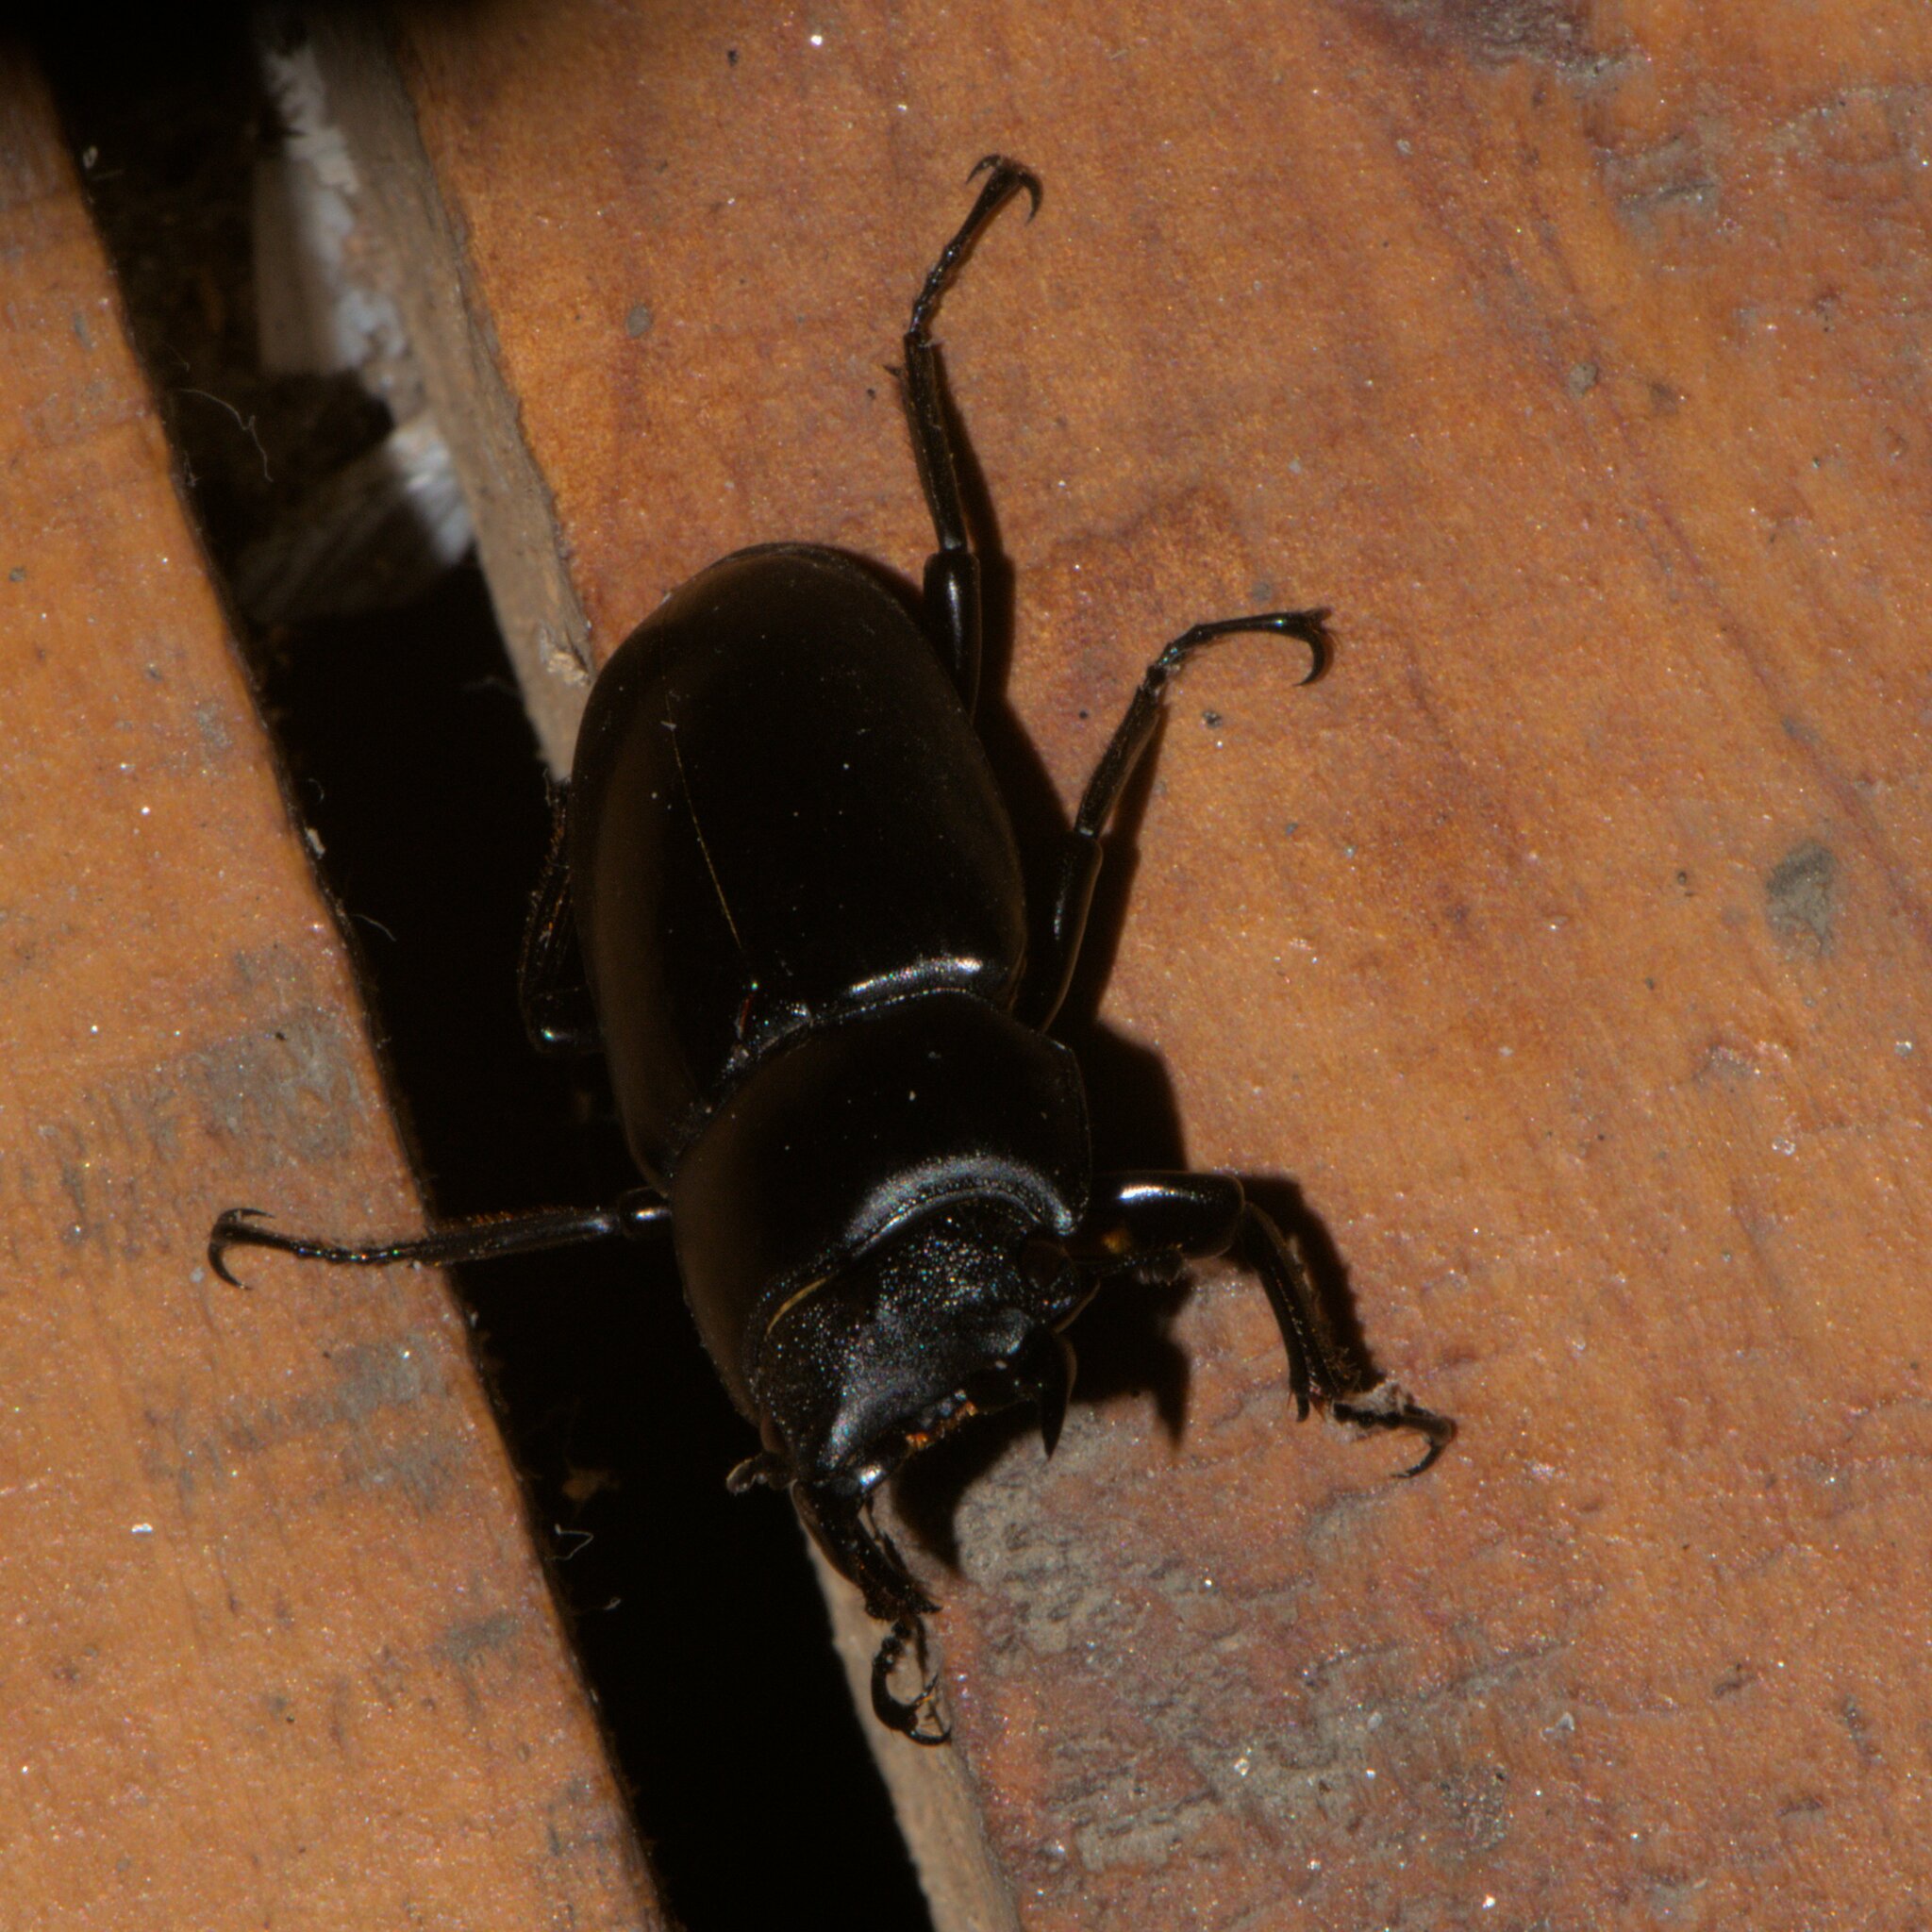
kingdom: Animalia
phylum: Arthropoda
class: Insecta
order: Coleoptera
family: Lucanidae
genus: Dorcus
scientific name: Dorcus nepalensis
